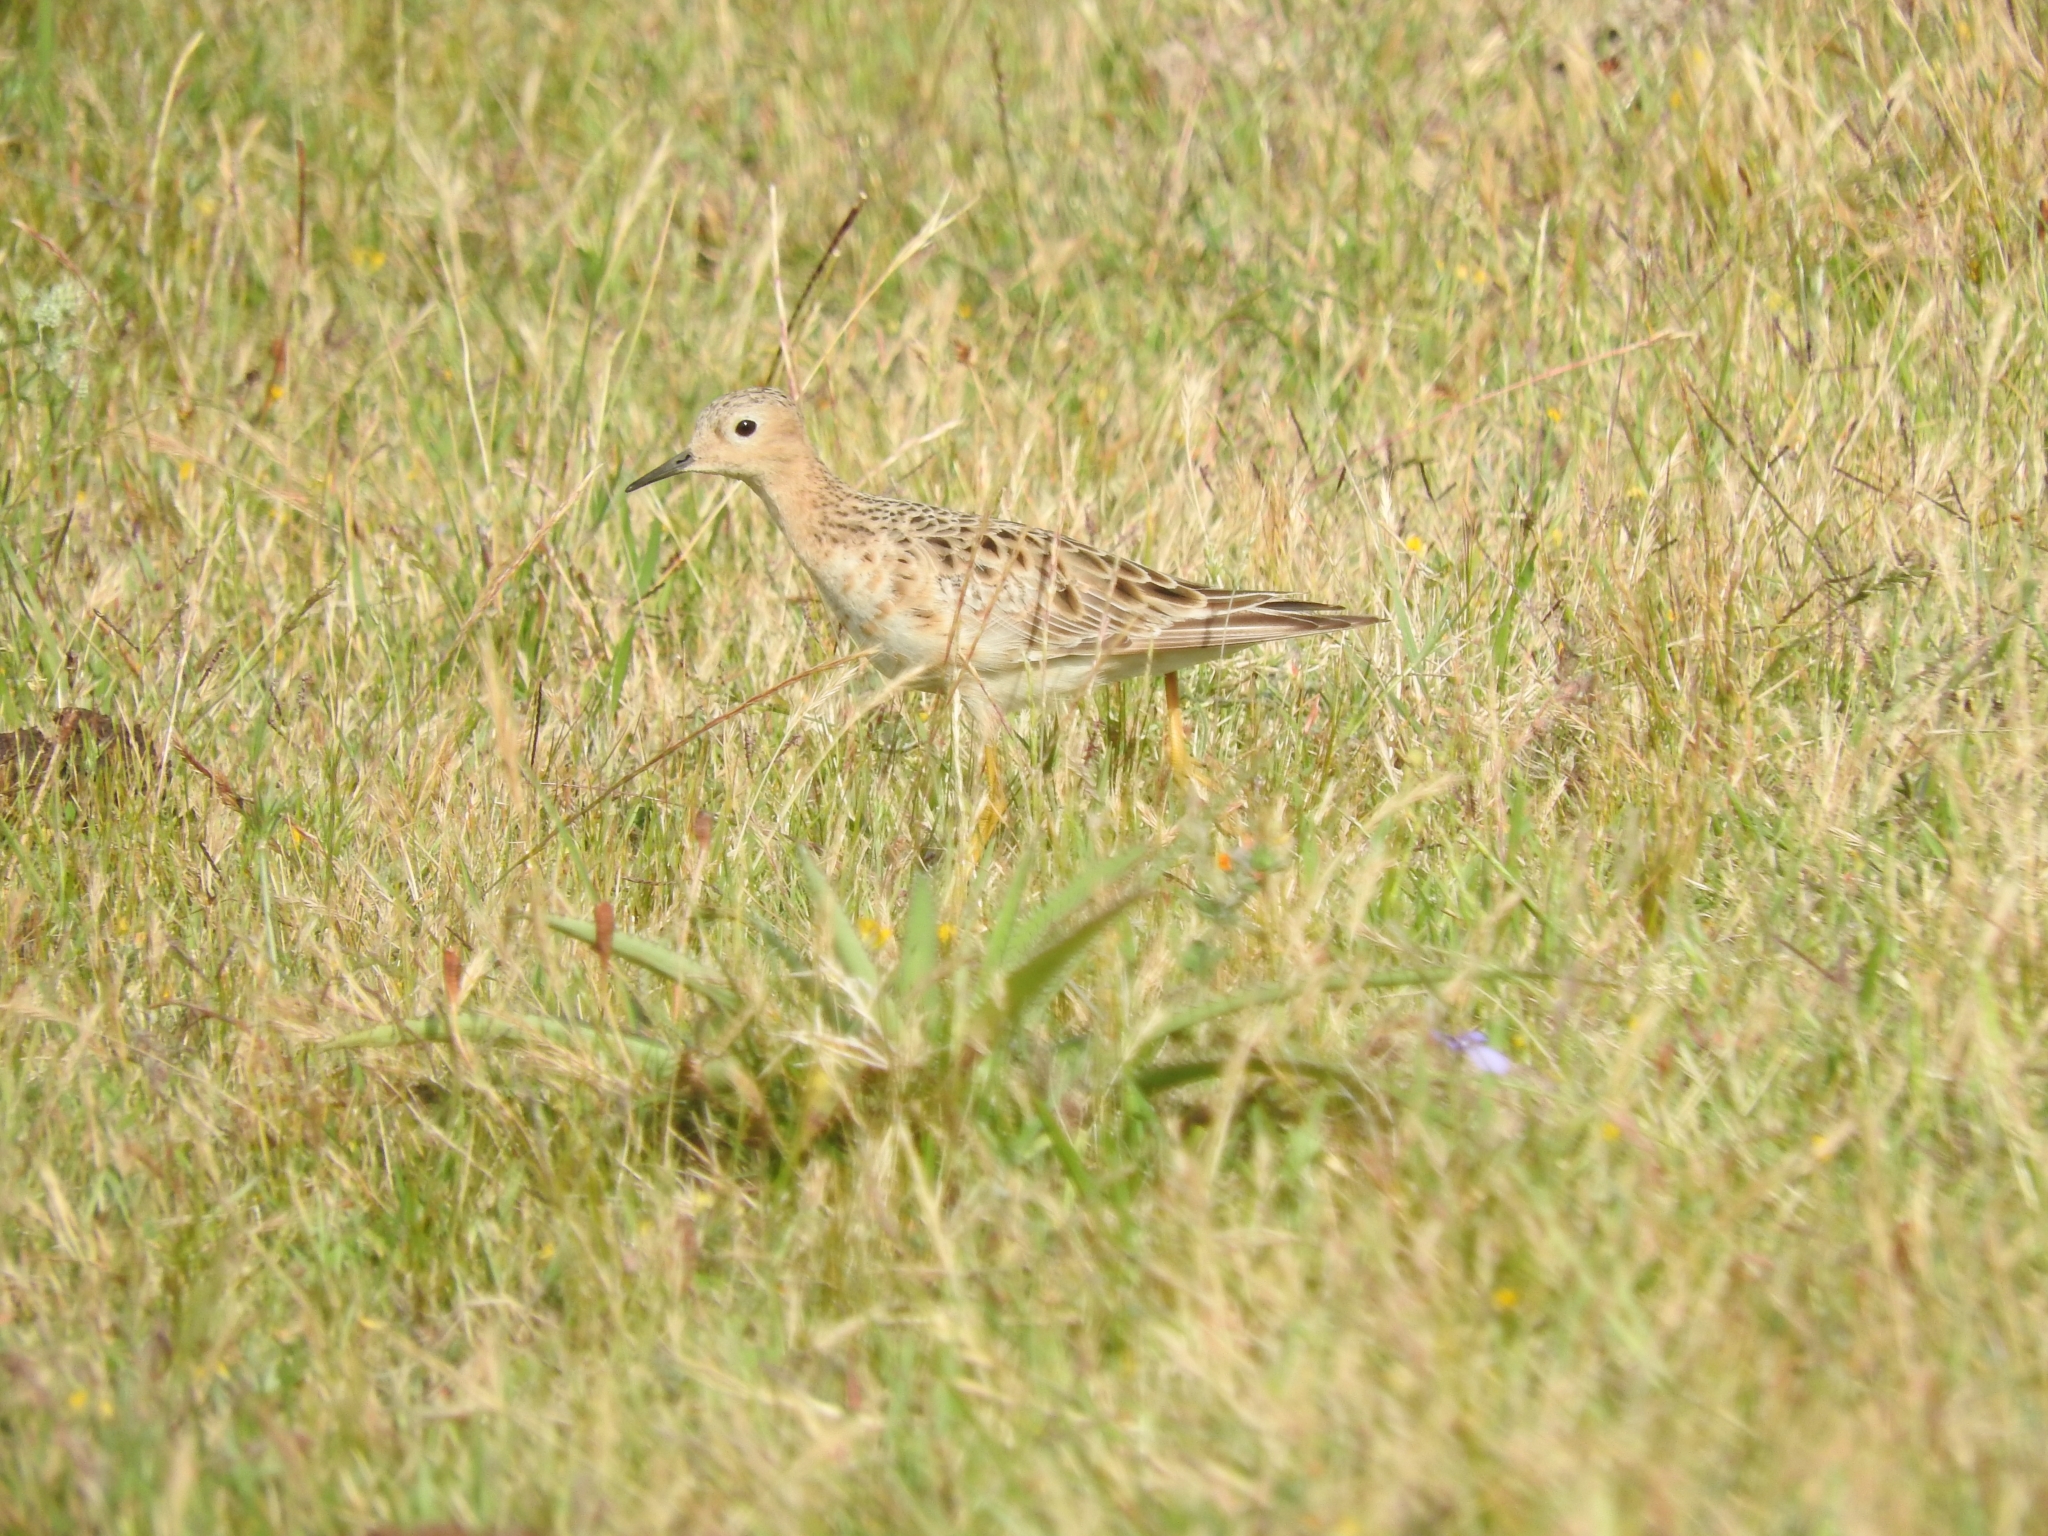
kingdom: Animalia
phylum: Chordata
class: Aves
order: Charadriiformes
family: Scolopacidae
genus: Calidris
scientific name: Calidris subruficollis
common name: Buff-breasted sandpiper
